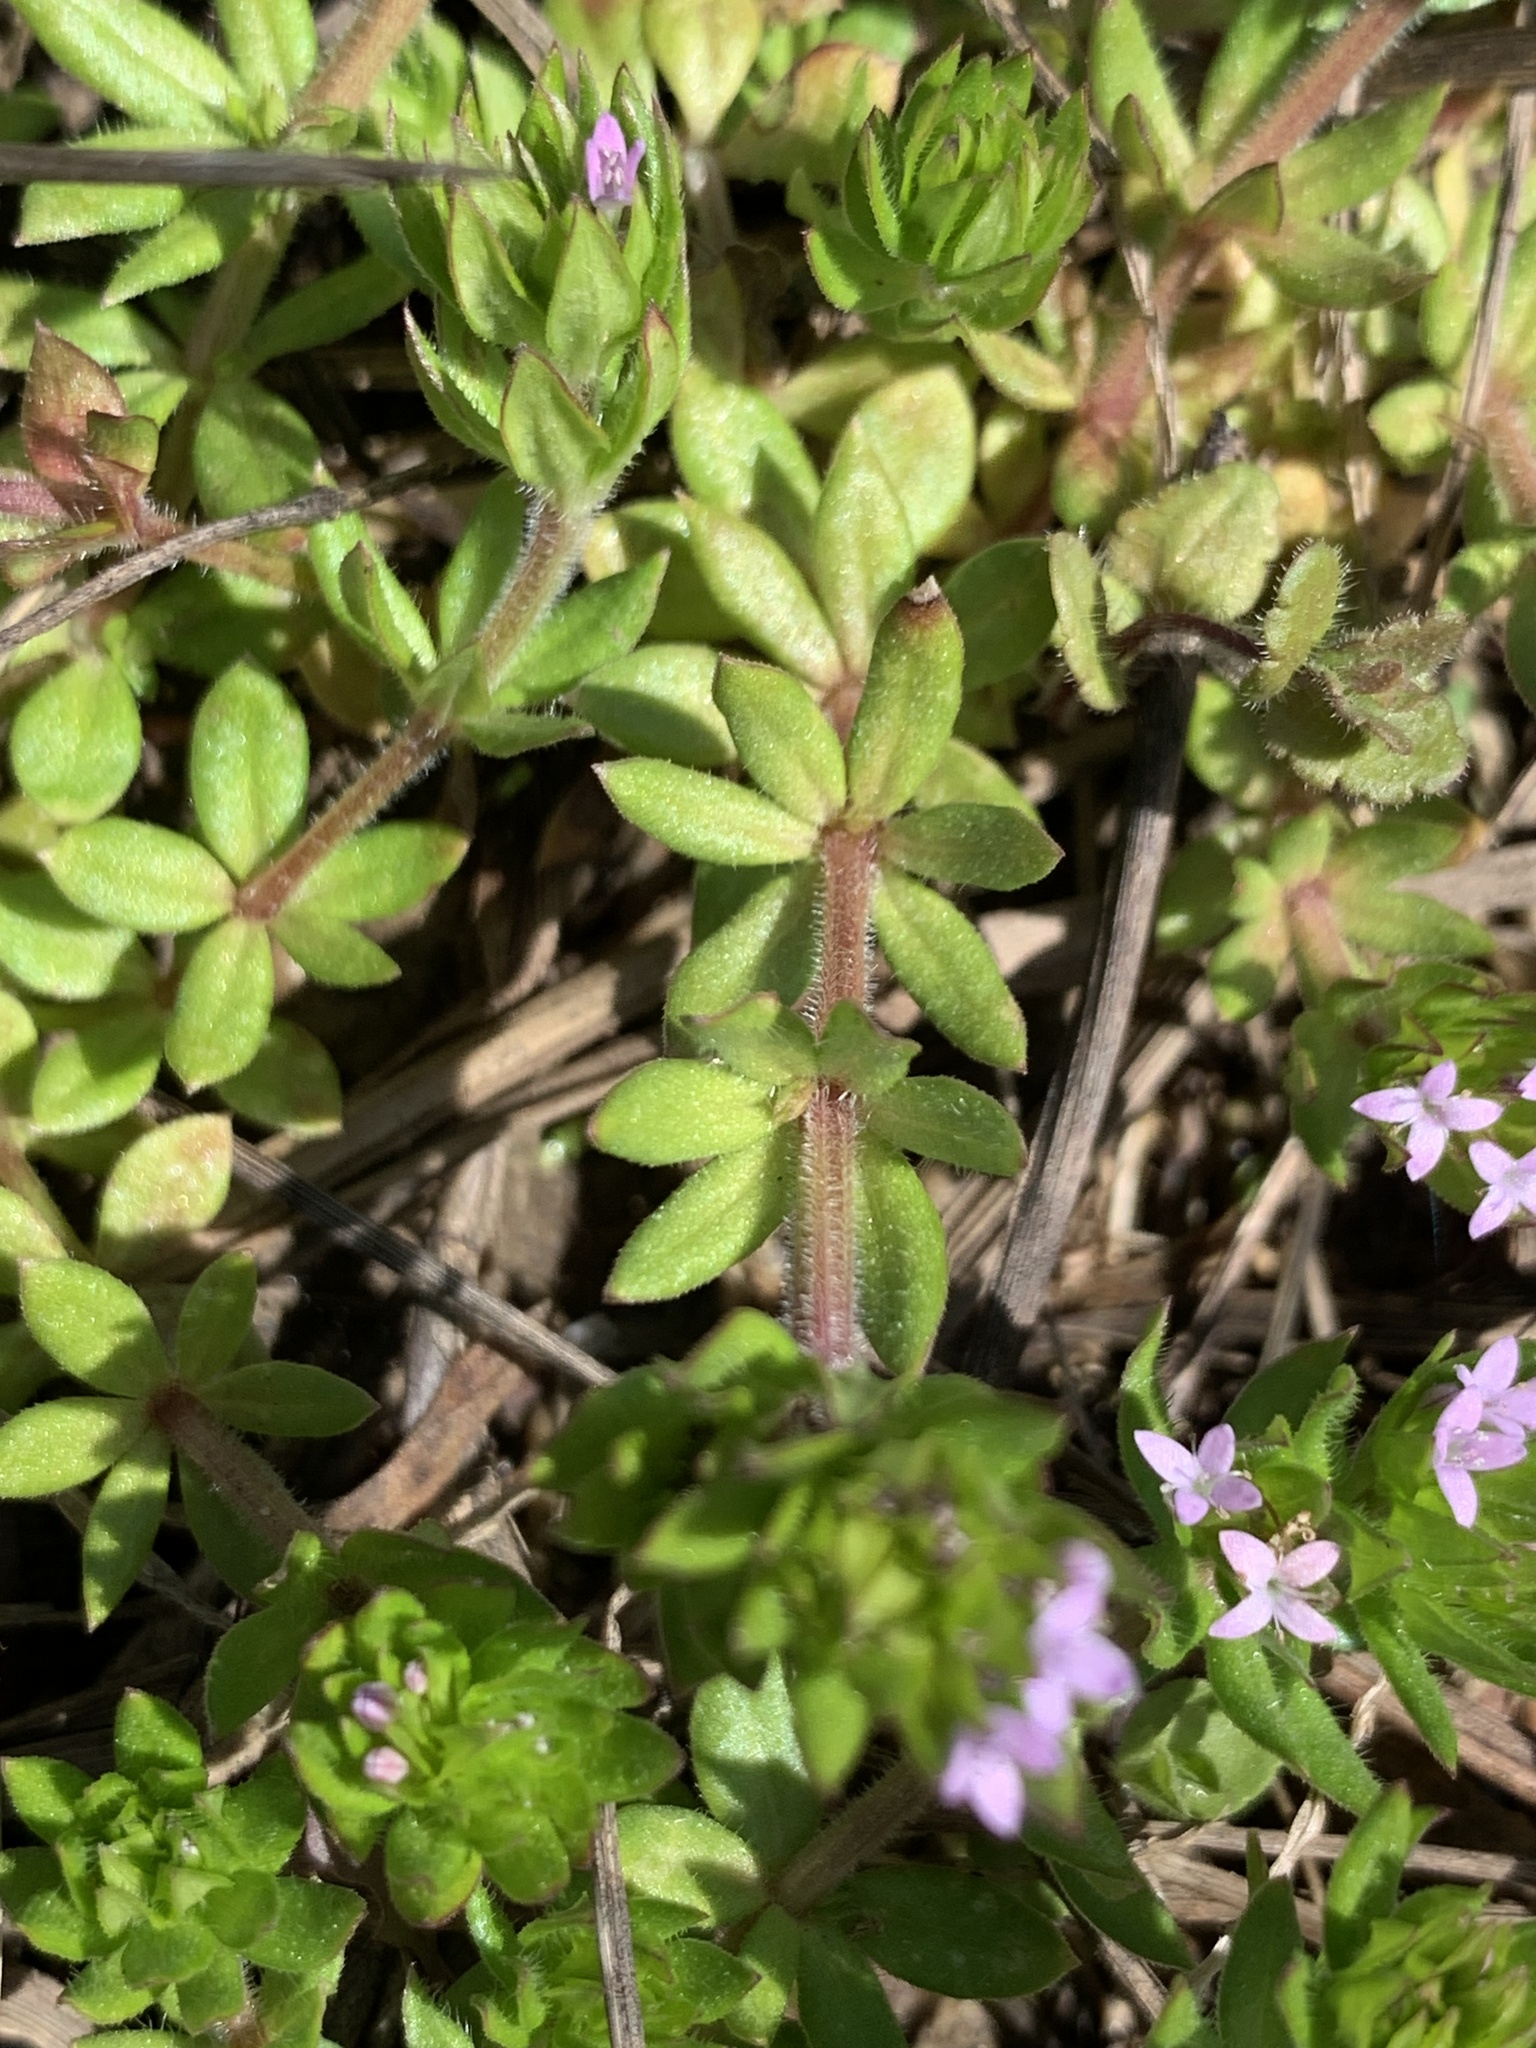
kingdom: Plantae
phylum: Tracheophyta
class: Magnoliopsida
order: Gentianales
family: Rubiaceae
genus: Sherardia
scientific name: Sherardia arvensis
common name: Field madder
